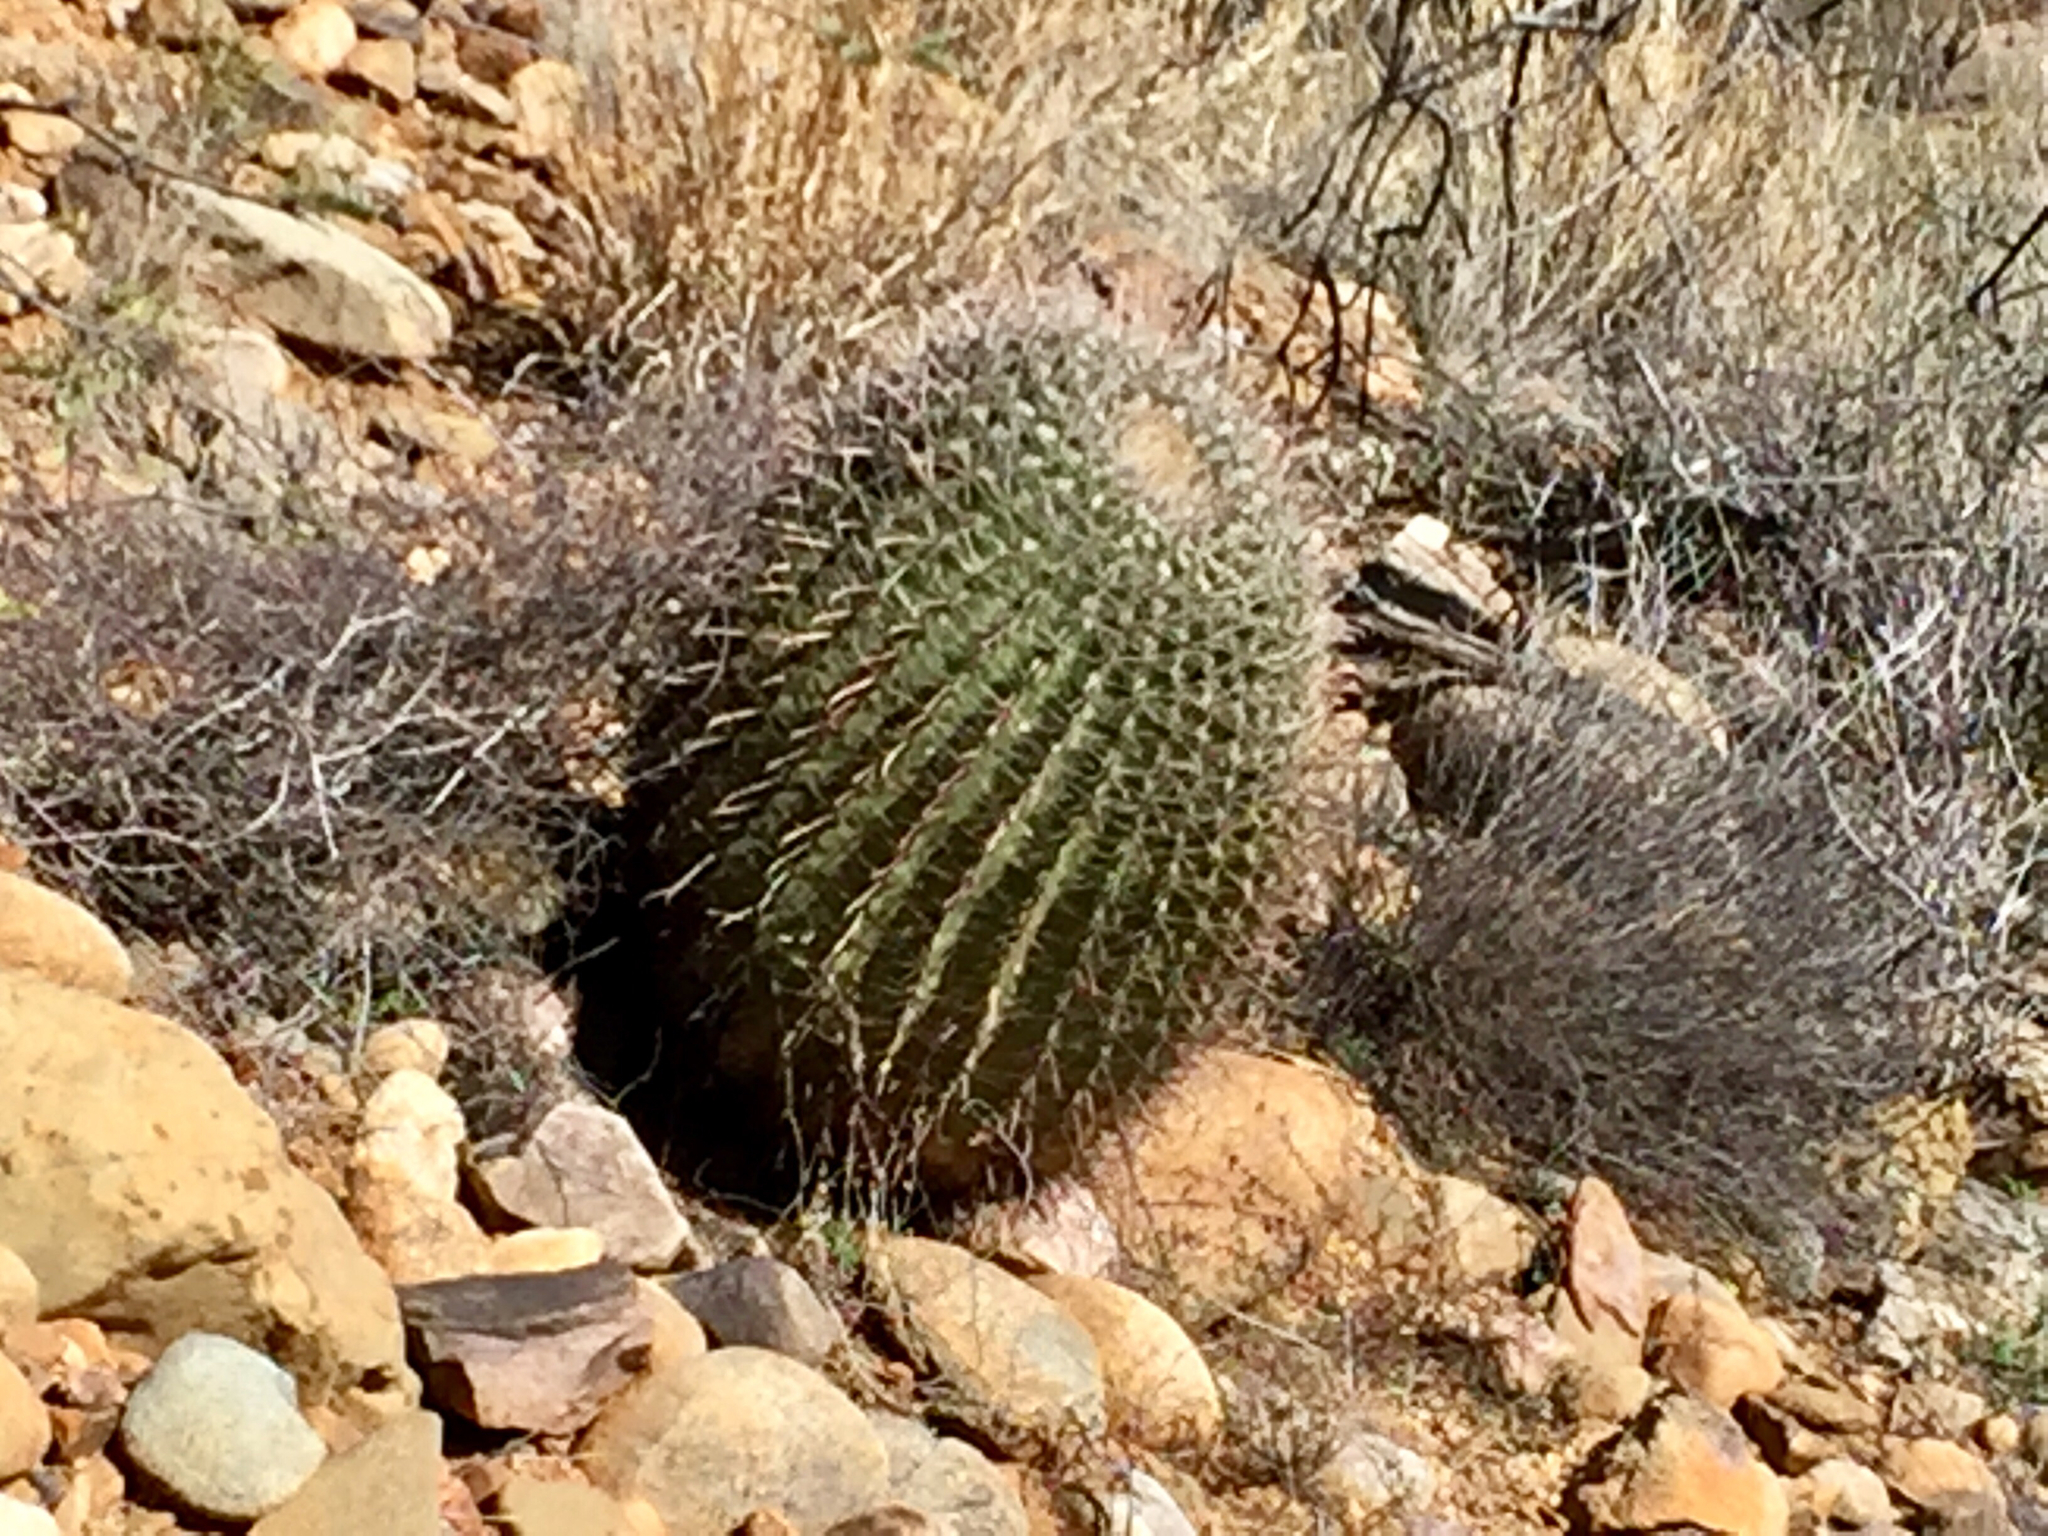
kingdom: Plantae
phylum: Tracheophyta
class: Magnoliopsida
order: Caryophyllales
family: Cactaceae
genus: Ferocactus
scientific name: Ferocactus wislizeni
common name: Candy barrel cactus
